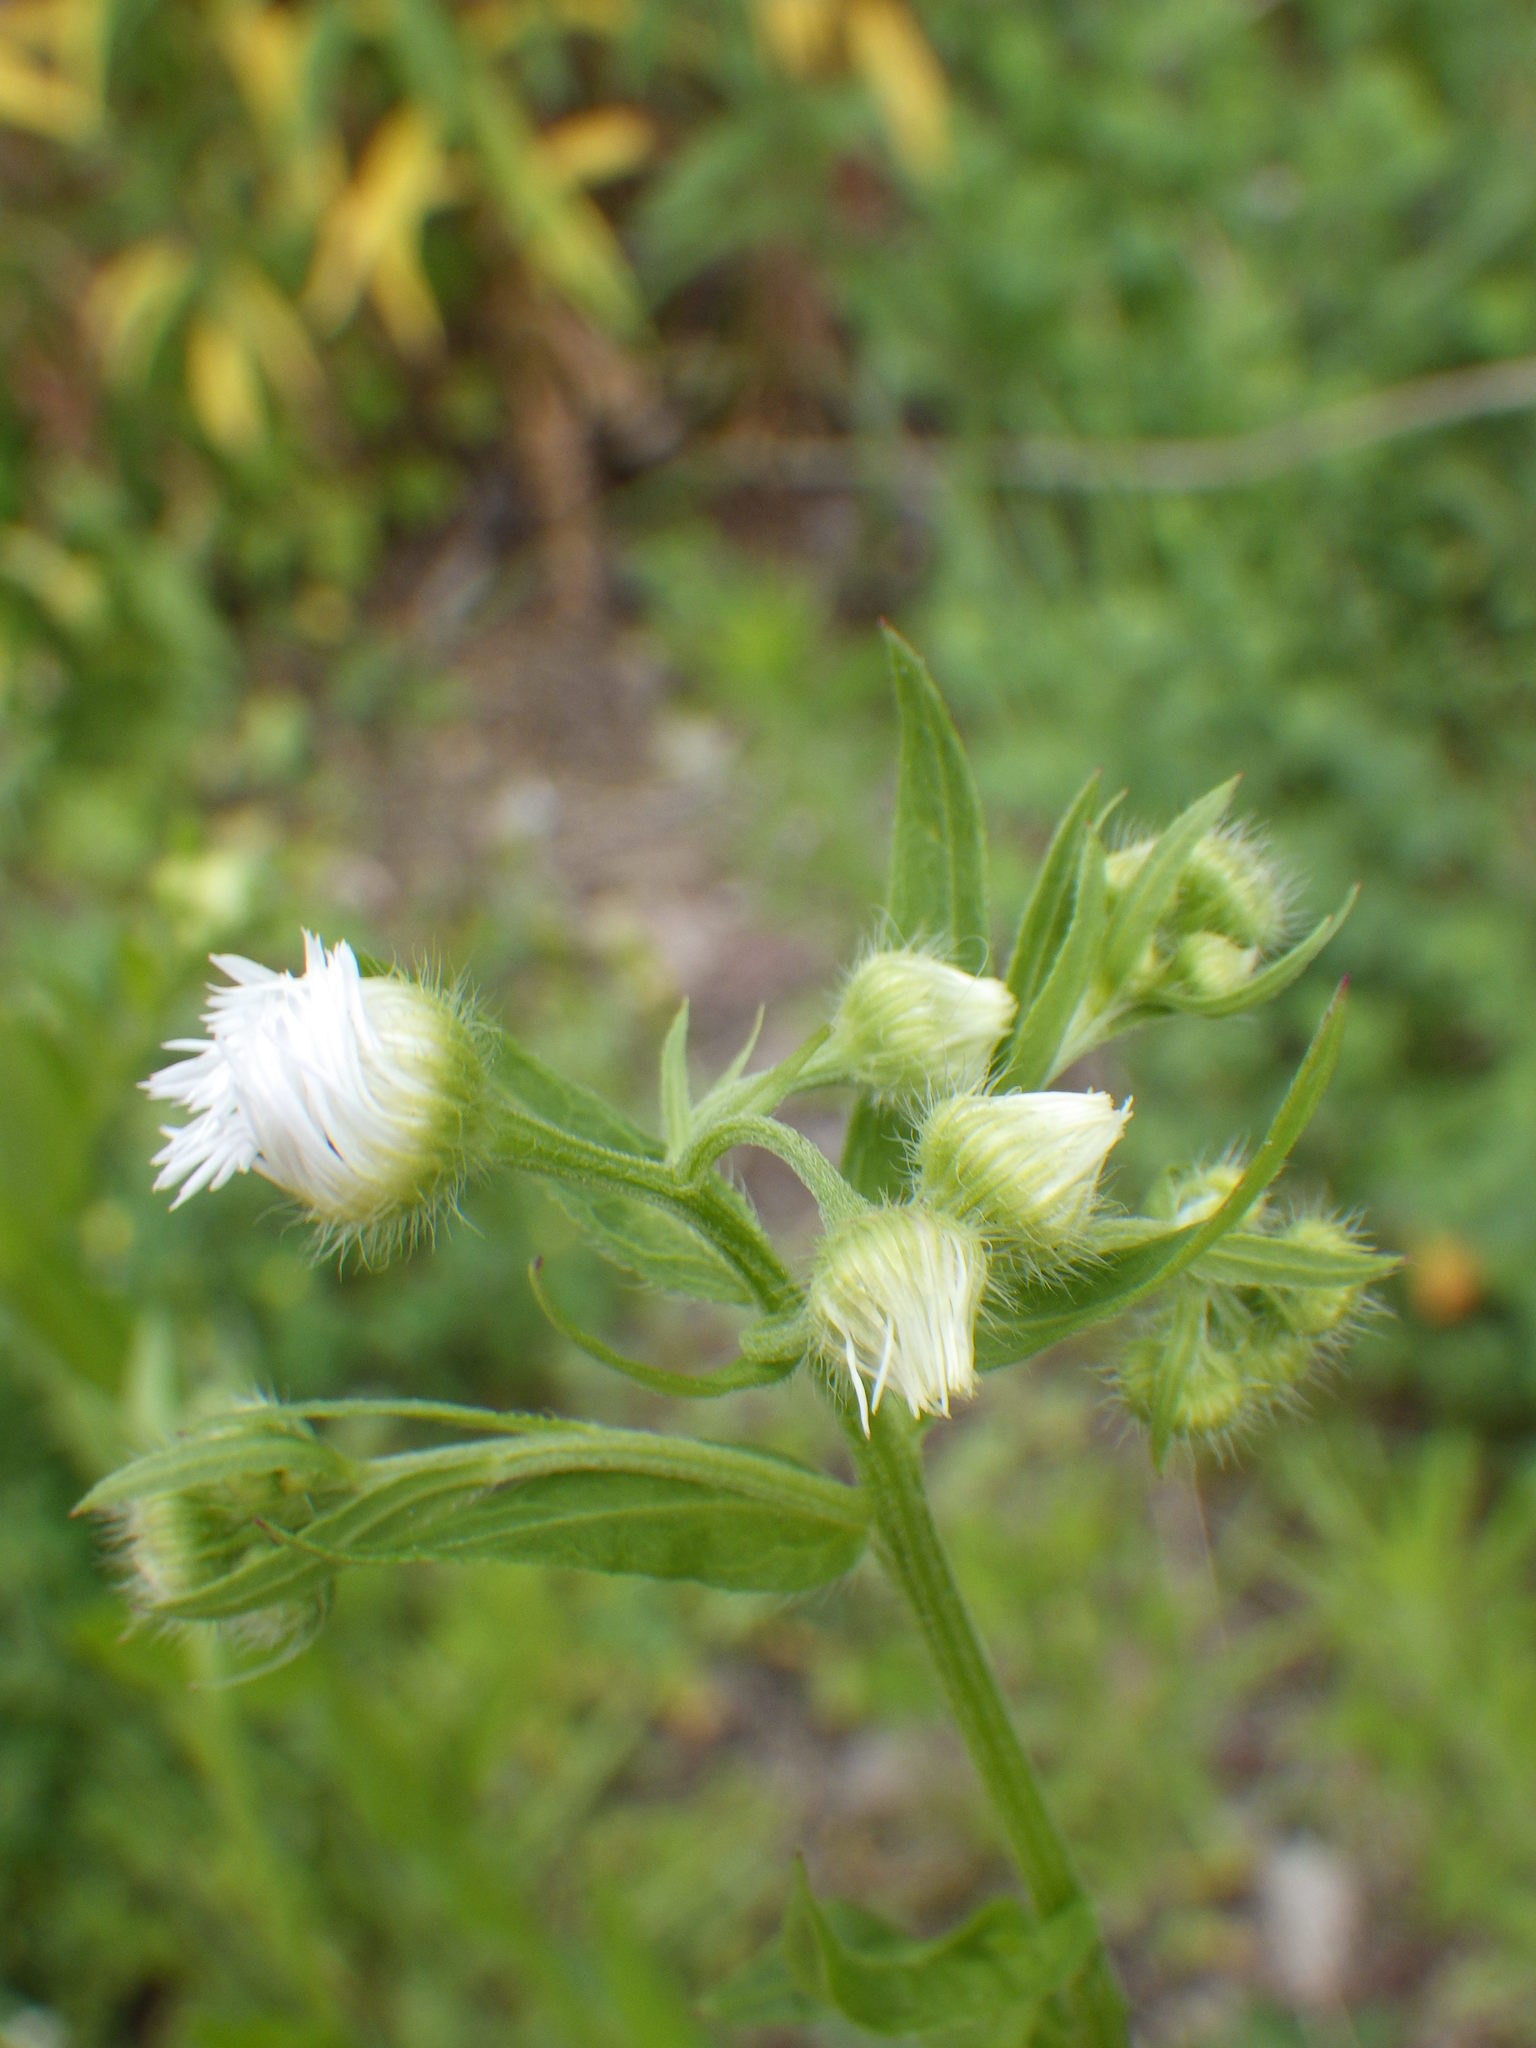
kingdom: Plantae
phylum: Tracheophyta
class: Magnoliopsida
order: Asterales
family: Asteraceae
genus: Erigeron
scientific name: Erigeron annuus
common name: Tall fleabane
